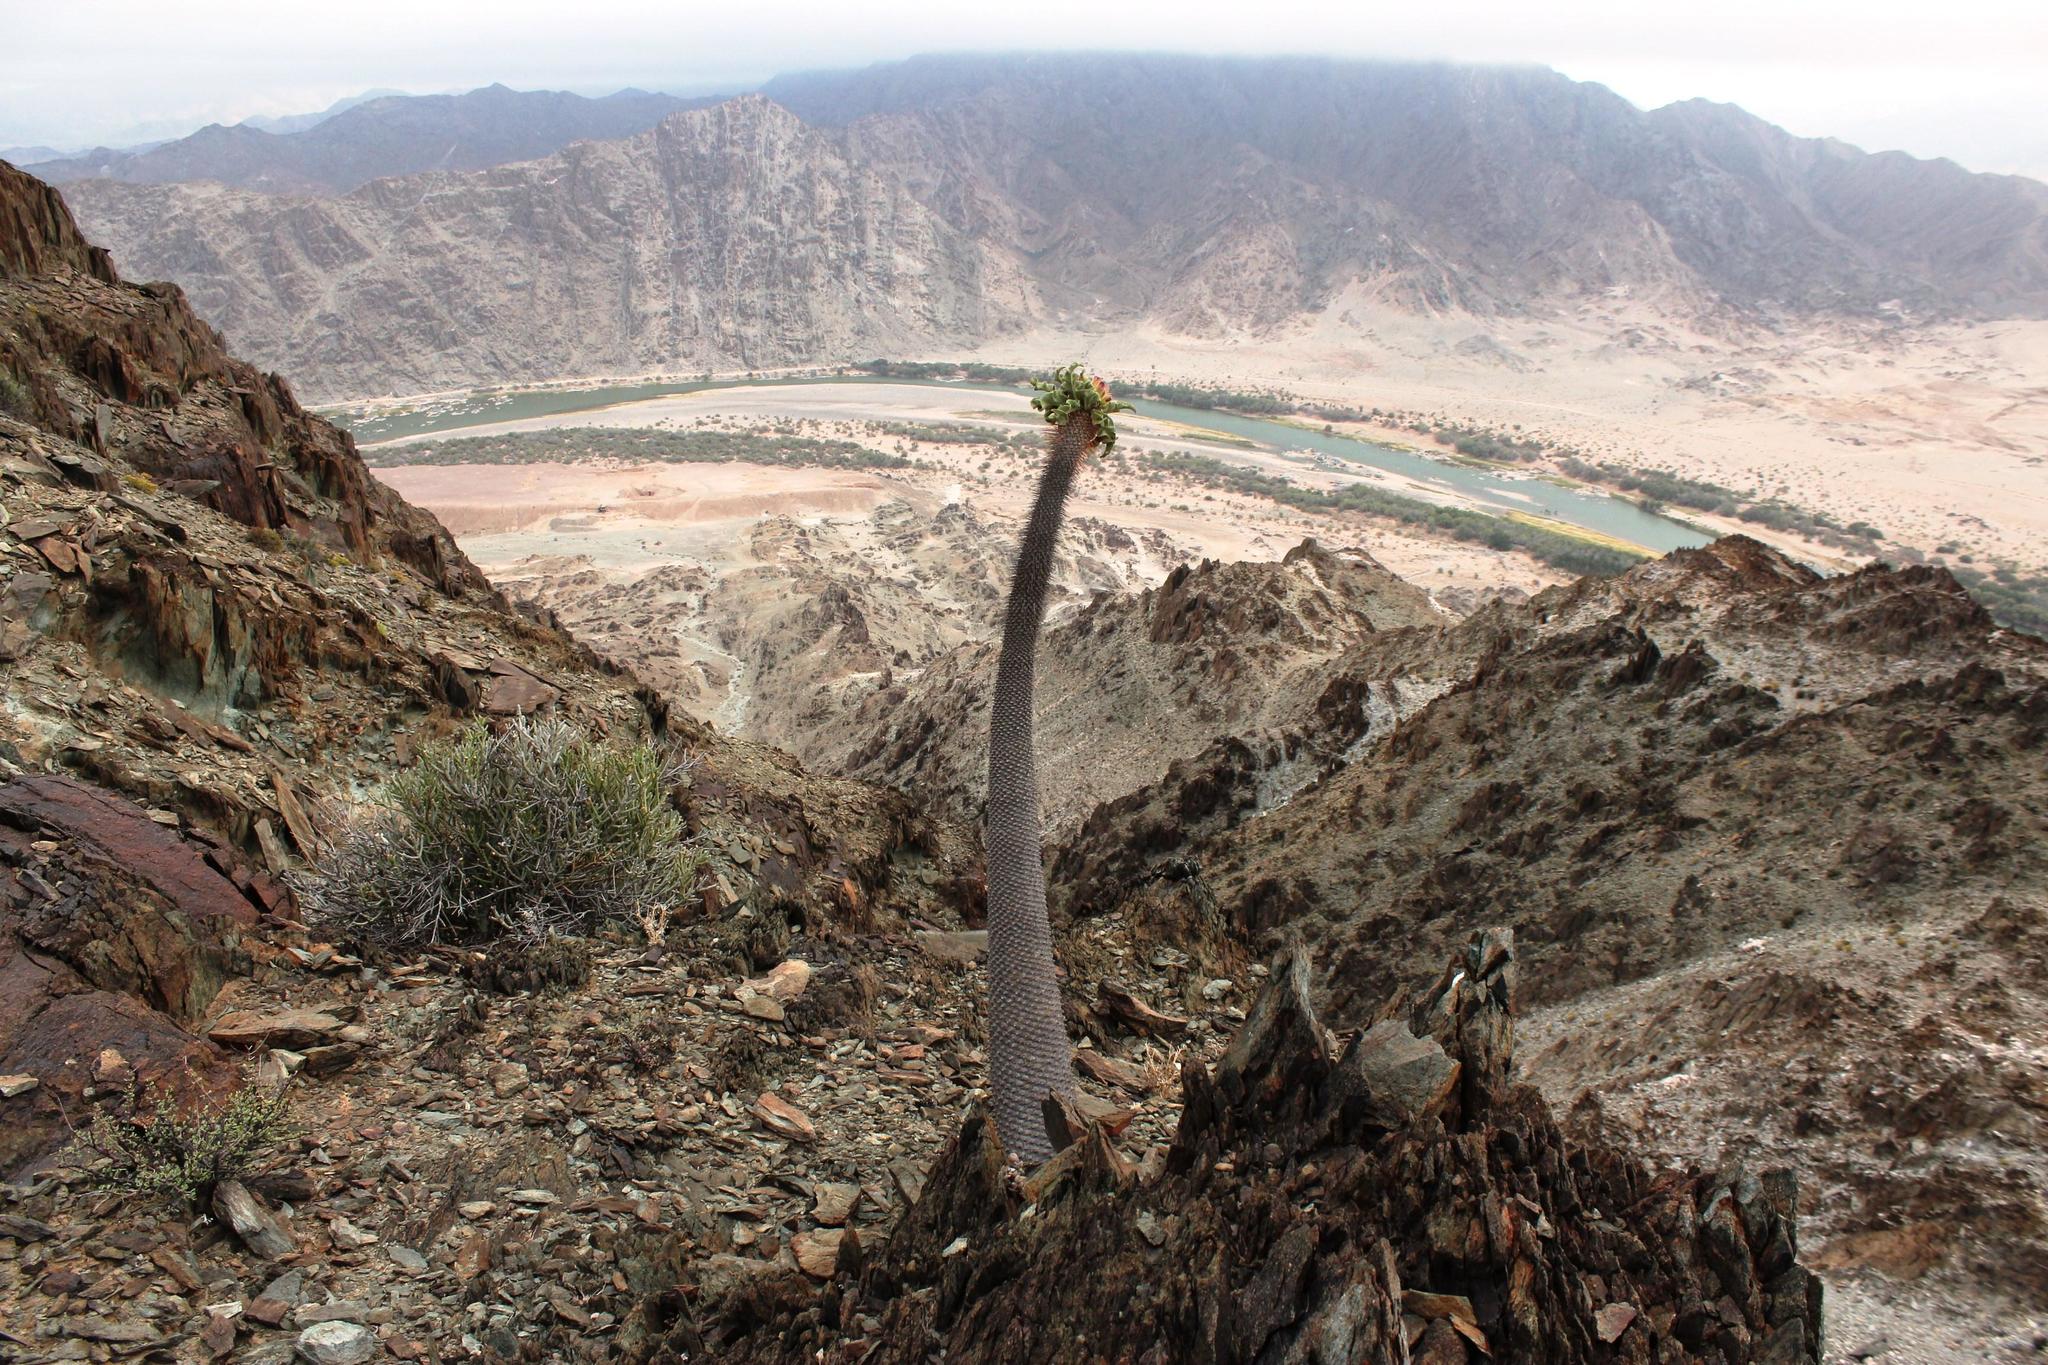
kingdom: Plantae
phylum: Tracheophyta
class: Magnoliopsida
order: Gentianales
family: Apocynaceae
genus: Pachypodium
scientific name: Pachypodium namaquanum
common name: Elephant's trunk
